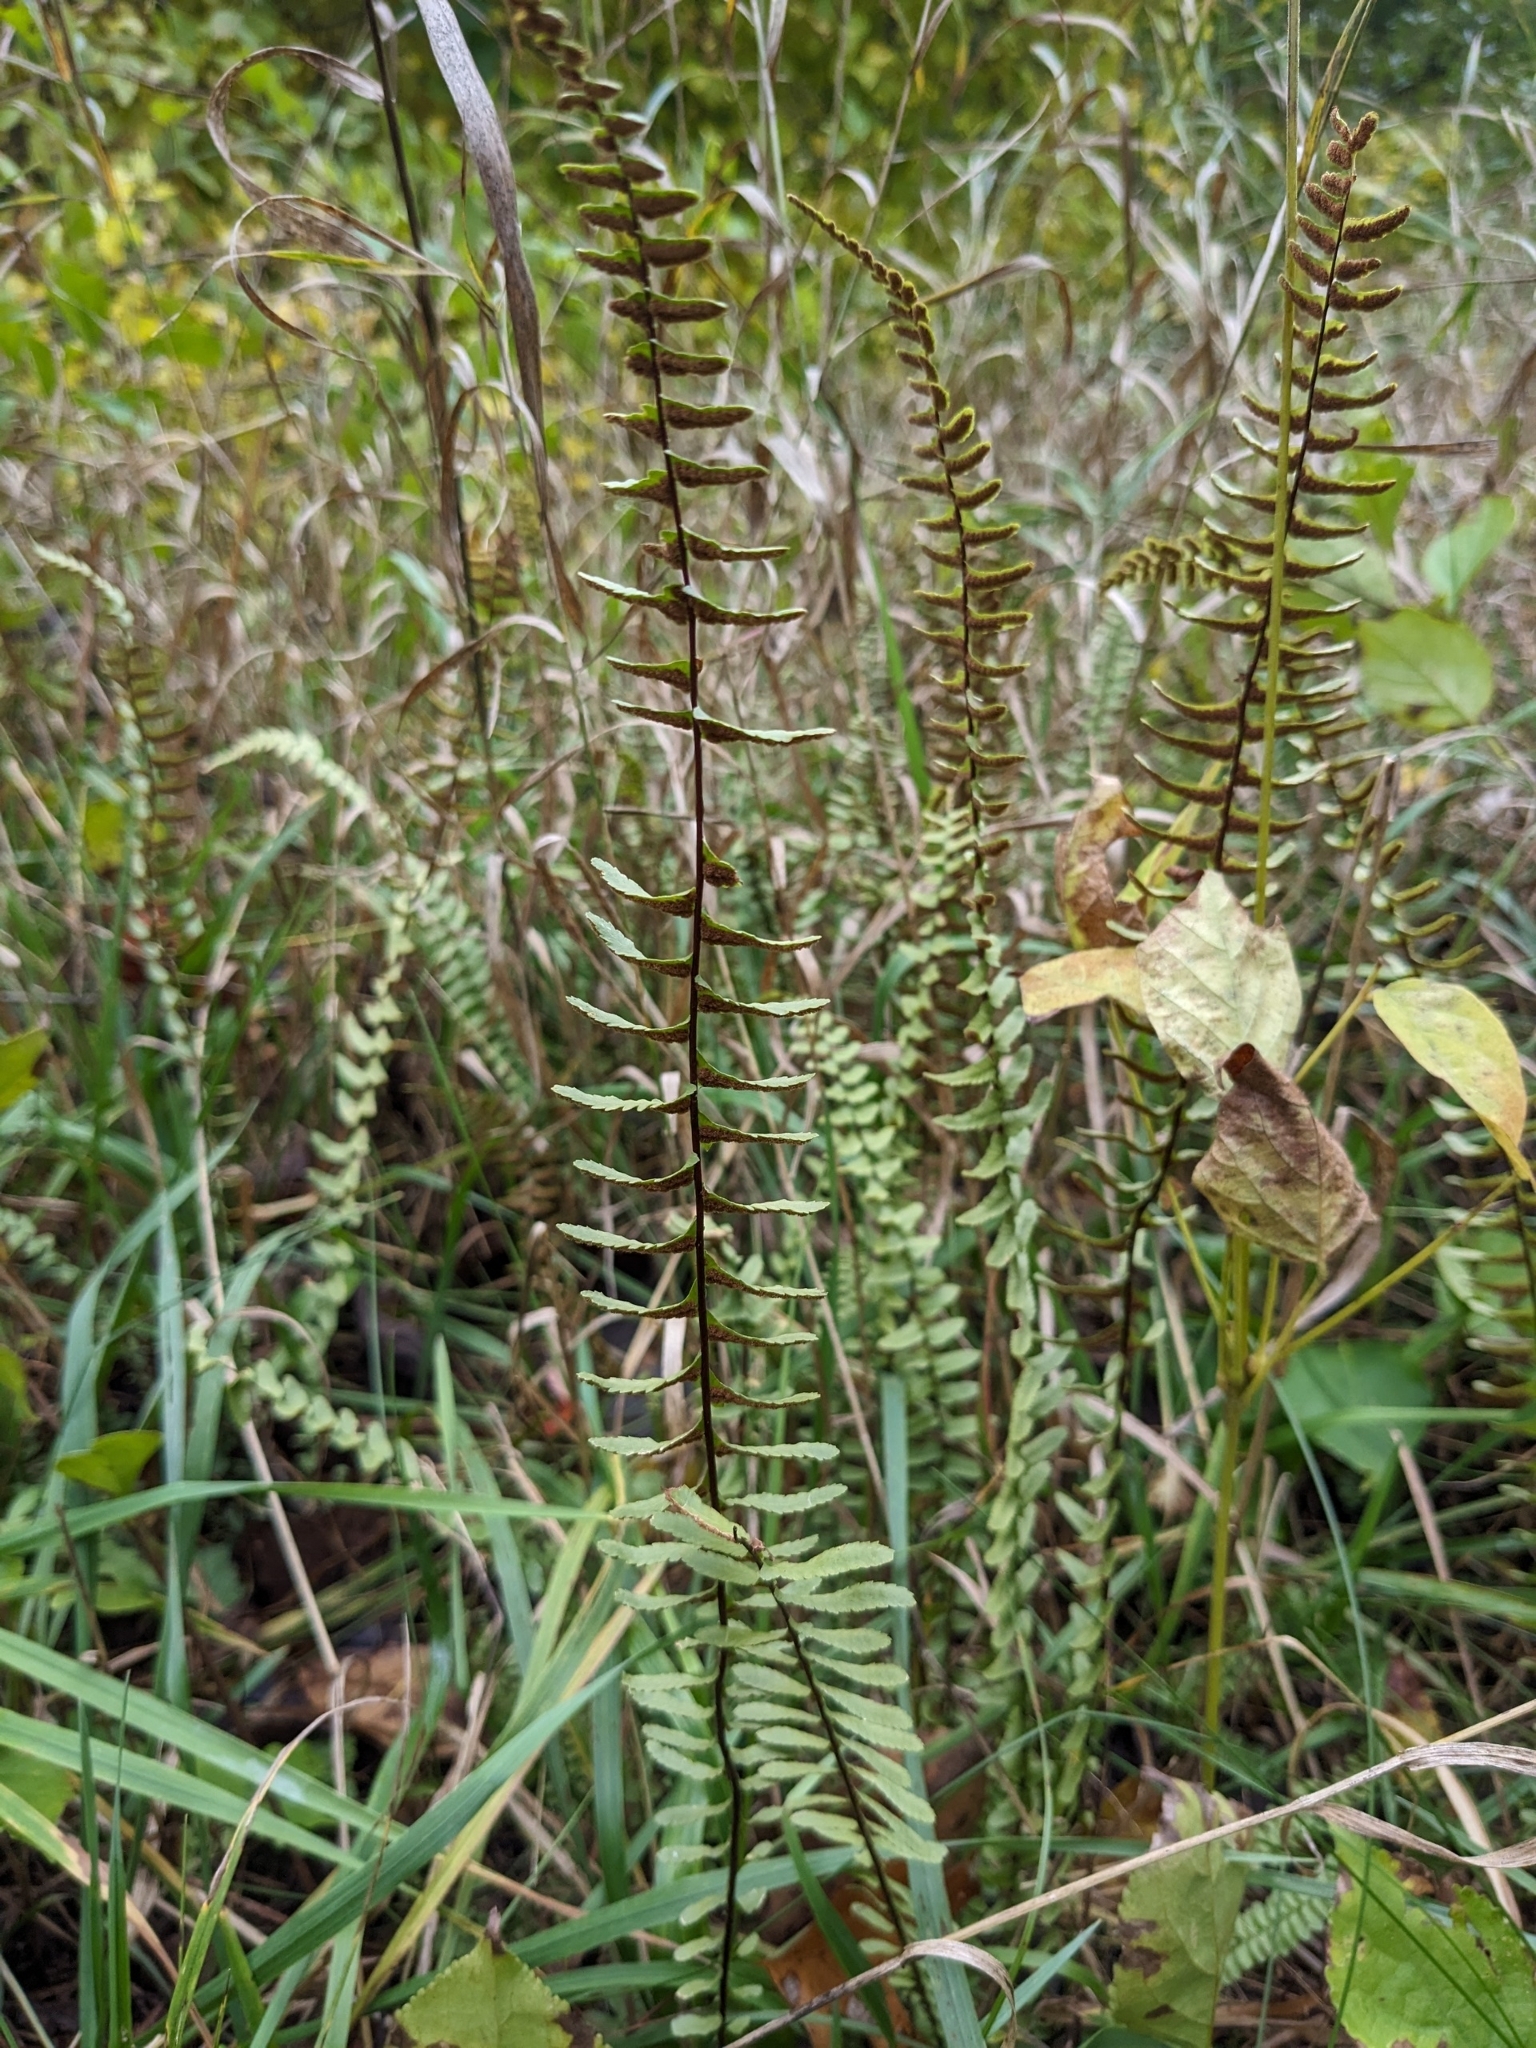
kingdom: Plantae
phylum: Tracheophyta
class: Polypodiopsida
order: Polypodiales
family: Aspleniaceae
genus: Asplenium
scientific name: Asplenium platyneuron
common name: Ebony spleenwort
